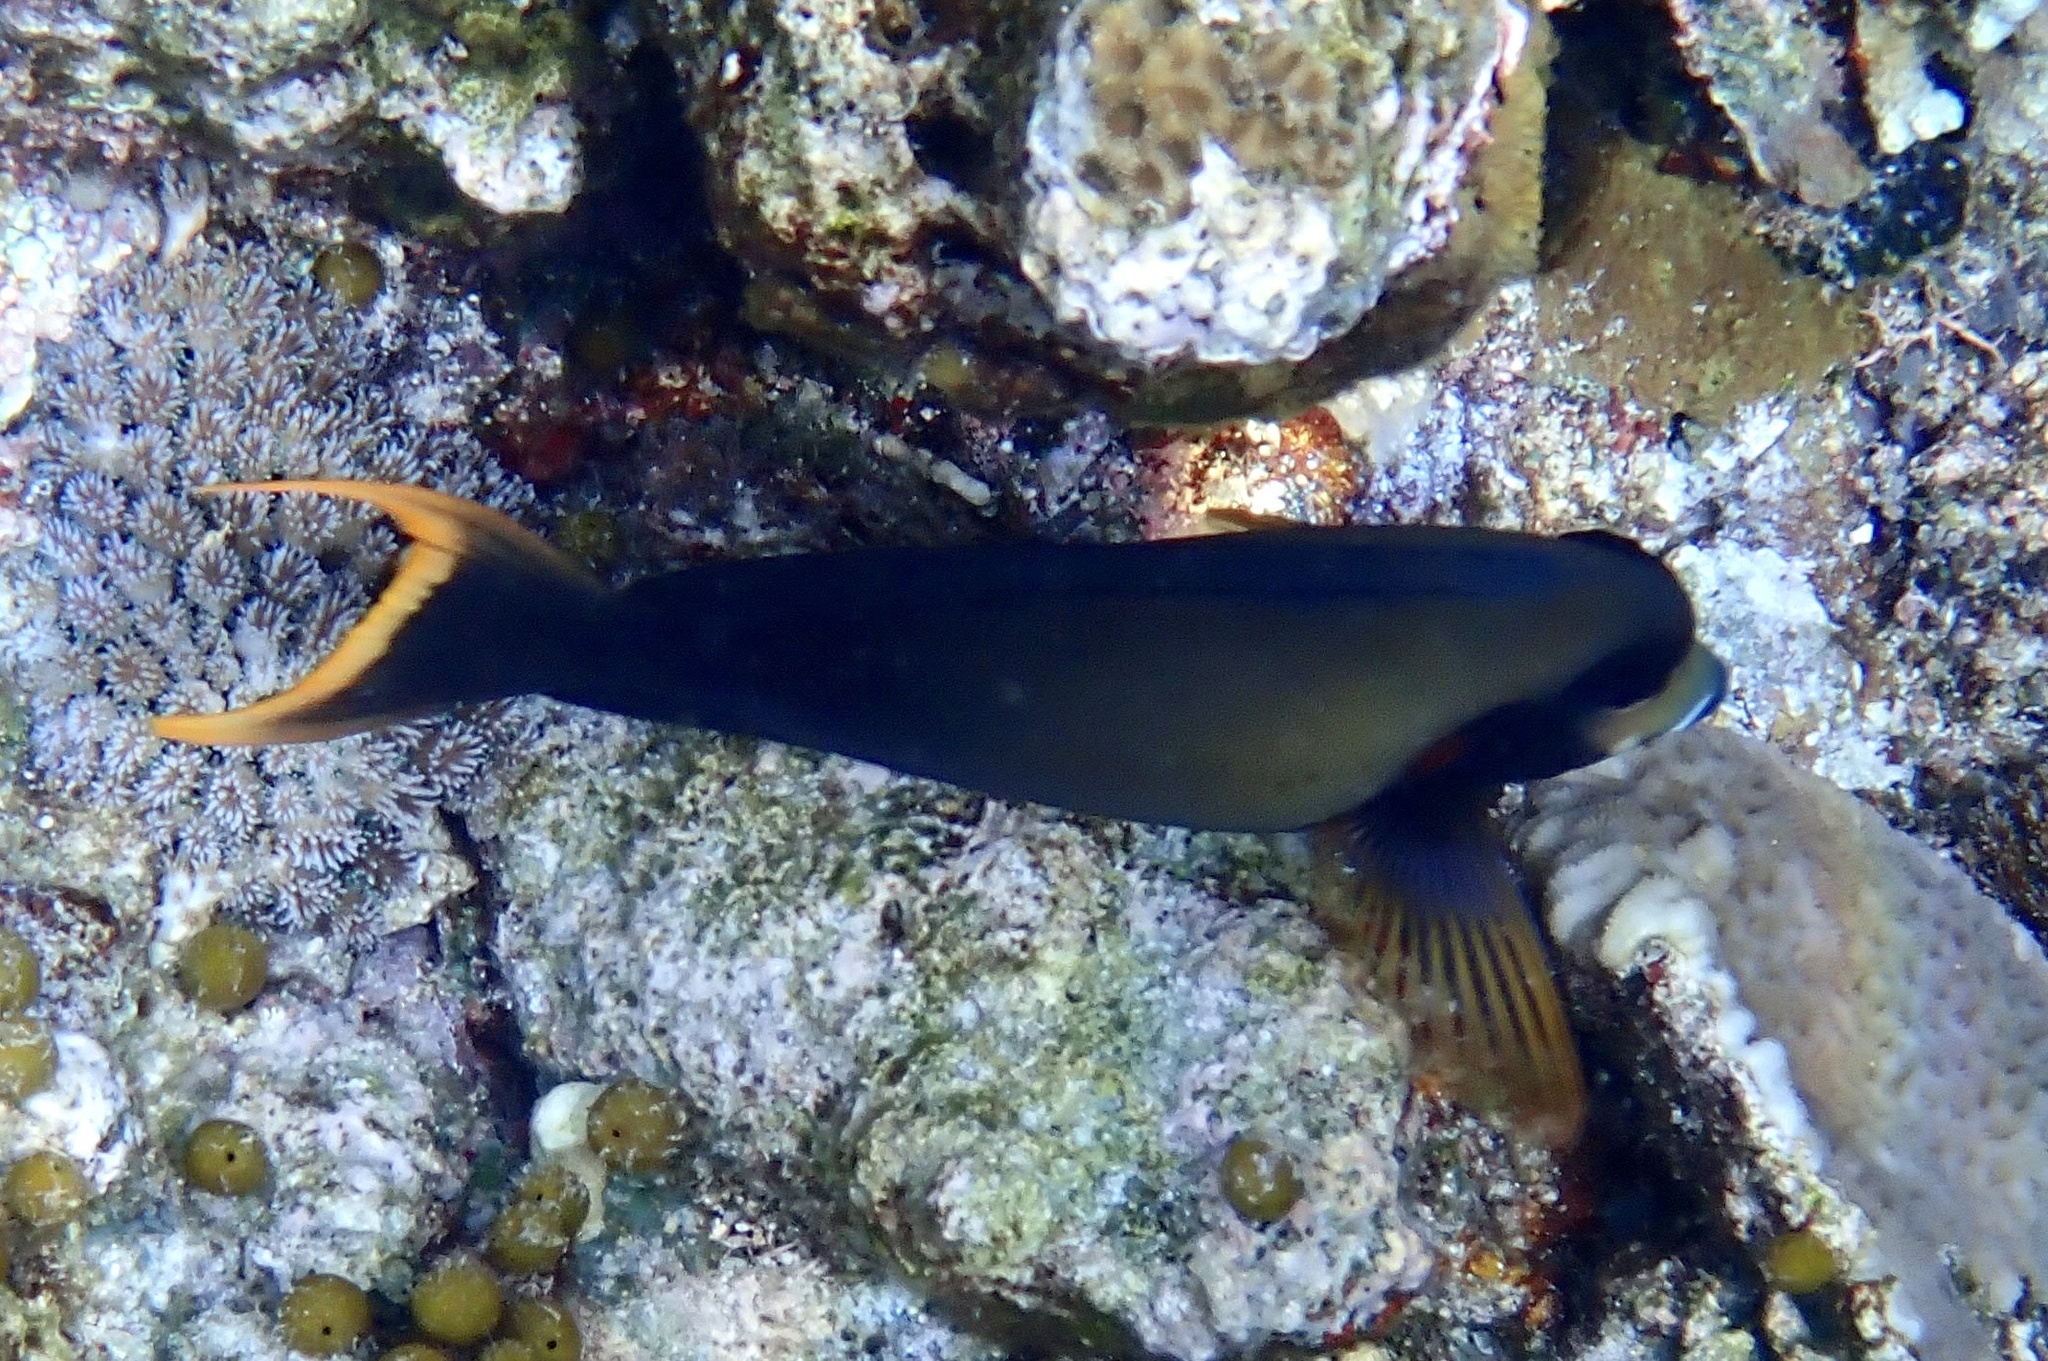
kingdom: Animalia
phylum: Chordata
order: Perciformes
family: Acanthuridae
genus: Acanthurus
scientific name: Acanthurus pyroferus
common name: Chocolate surgeonfish
